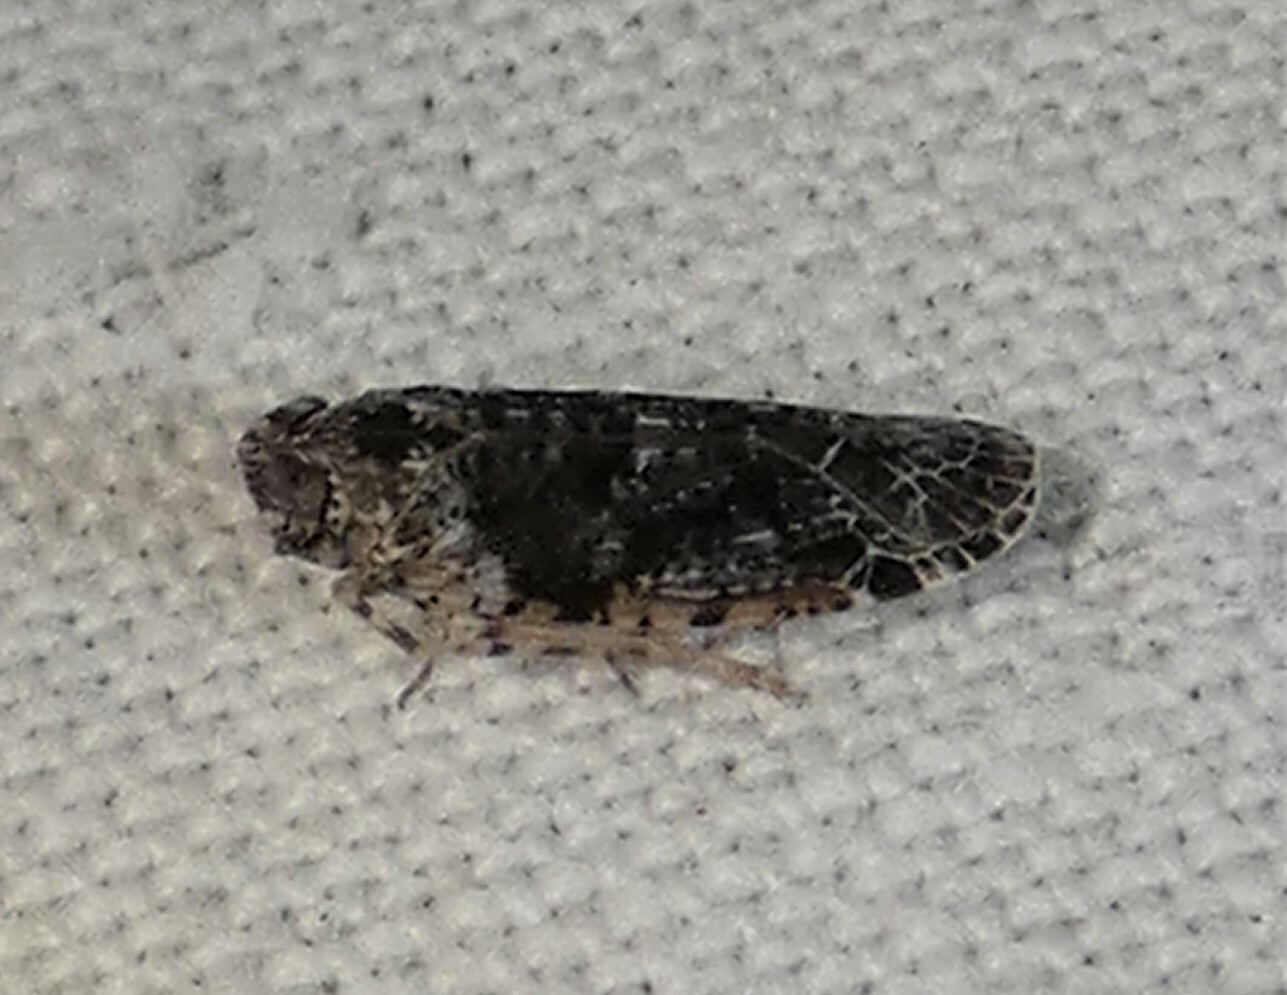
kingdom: Animalia
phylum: Arthropoda
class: Insecta
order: Hemiptera
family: Achilidae
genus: Catonia
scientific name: Catonia nava
